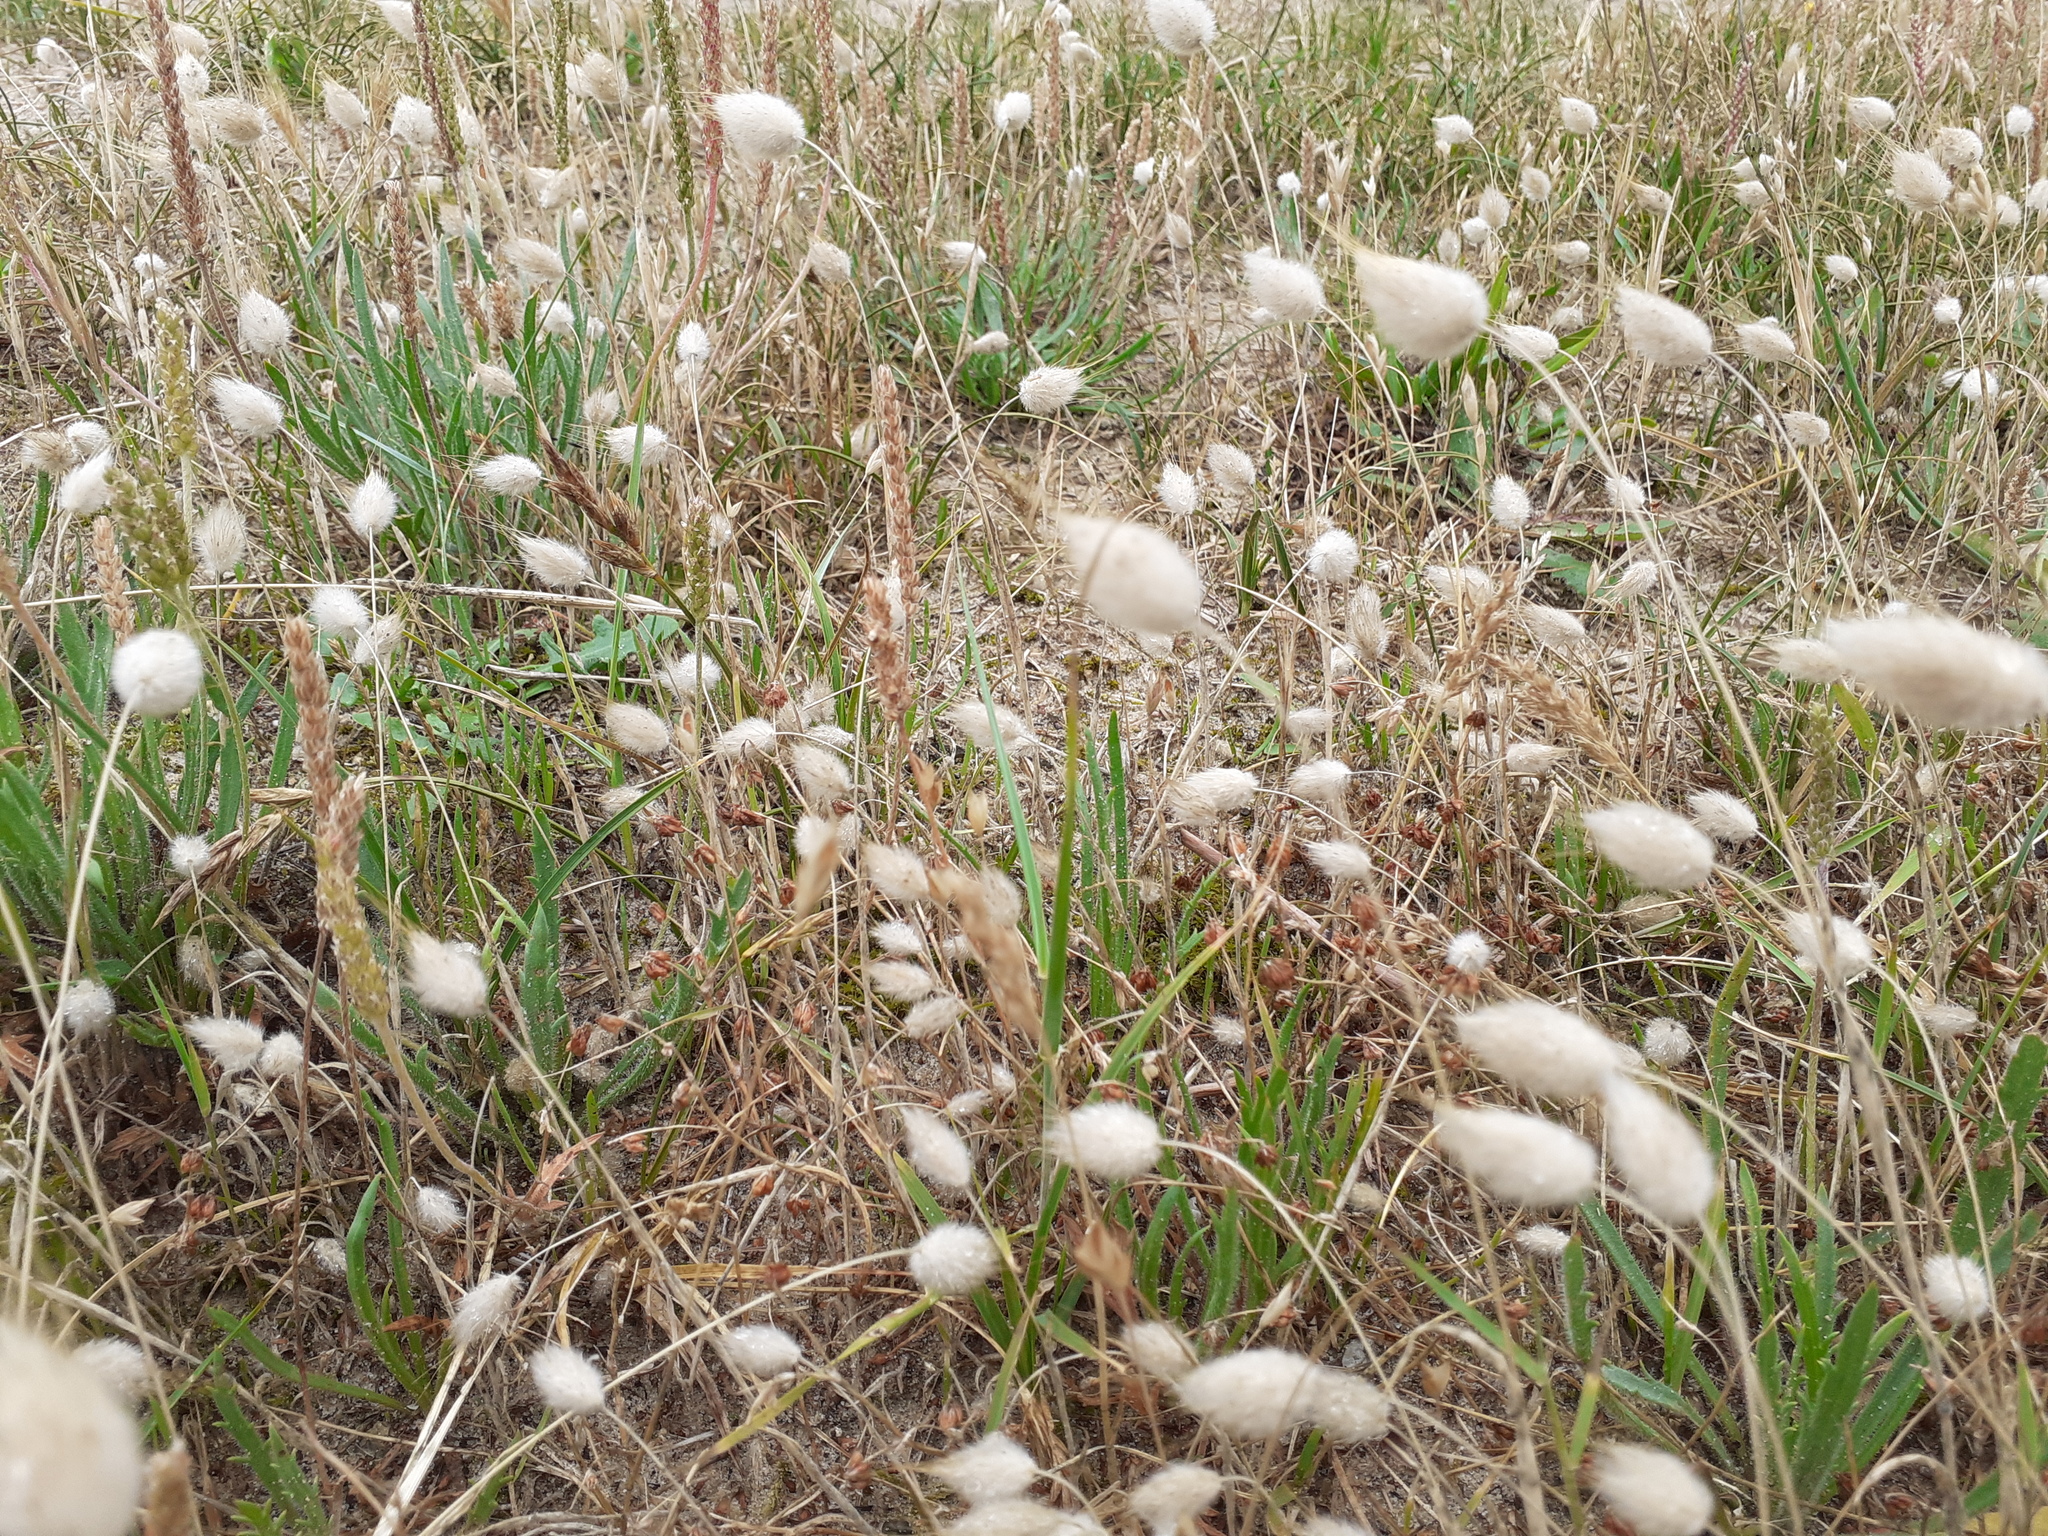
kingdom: Plantae
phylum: Tracheophyta
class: Liliopsida
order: Poales
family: Poaceae
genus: Lagurus
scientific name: Lagurus ovatus
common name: Hare's-tail
